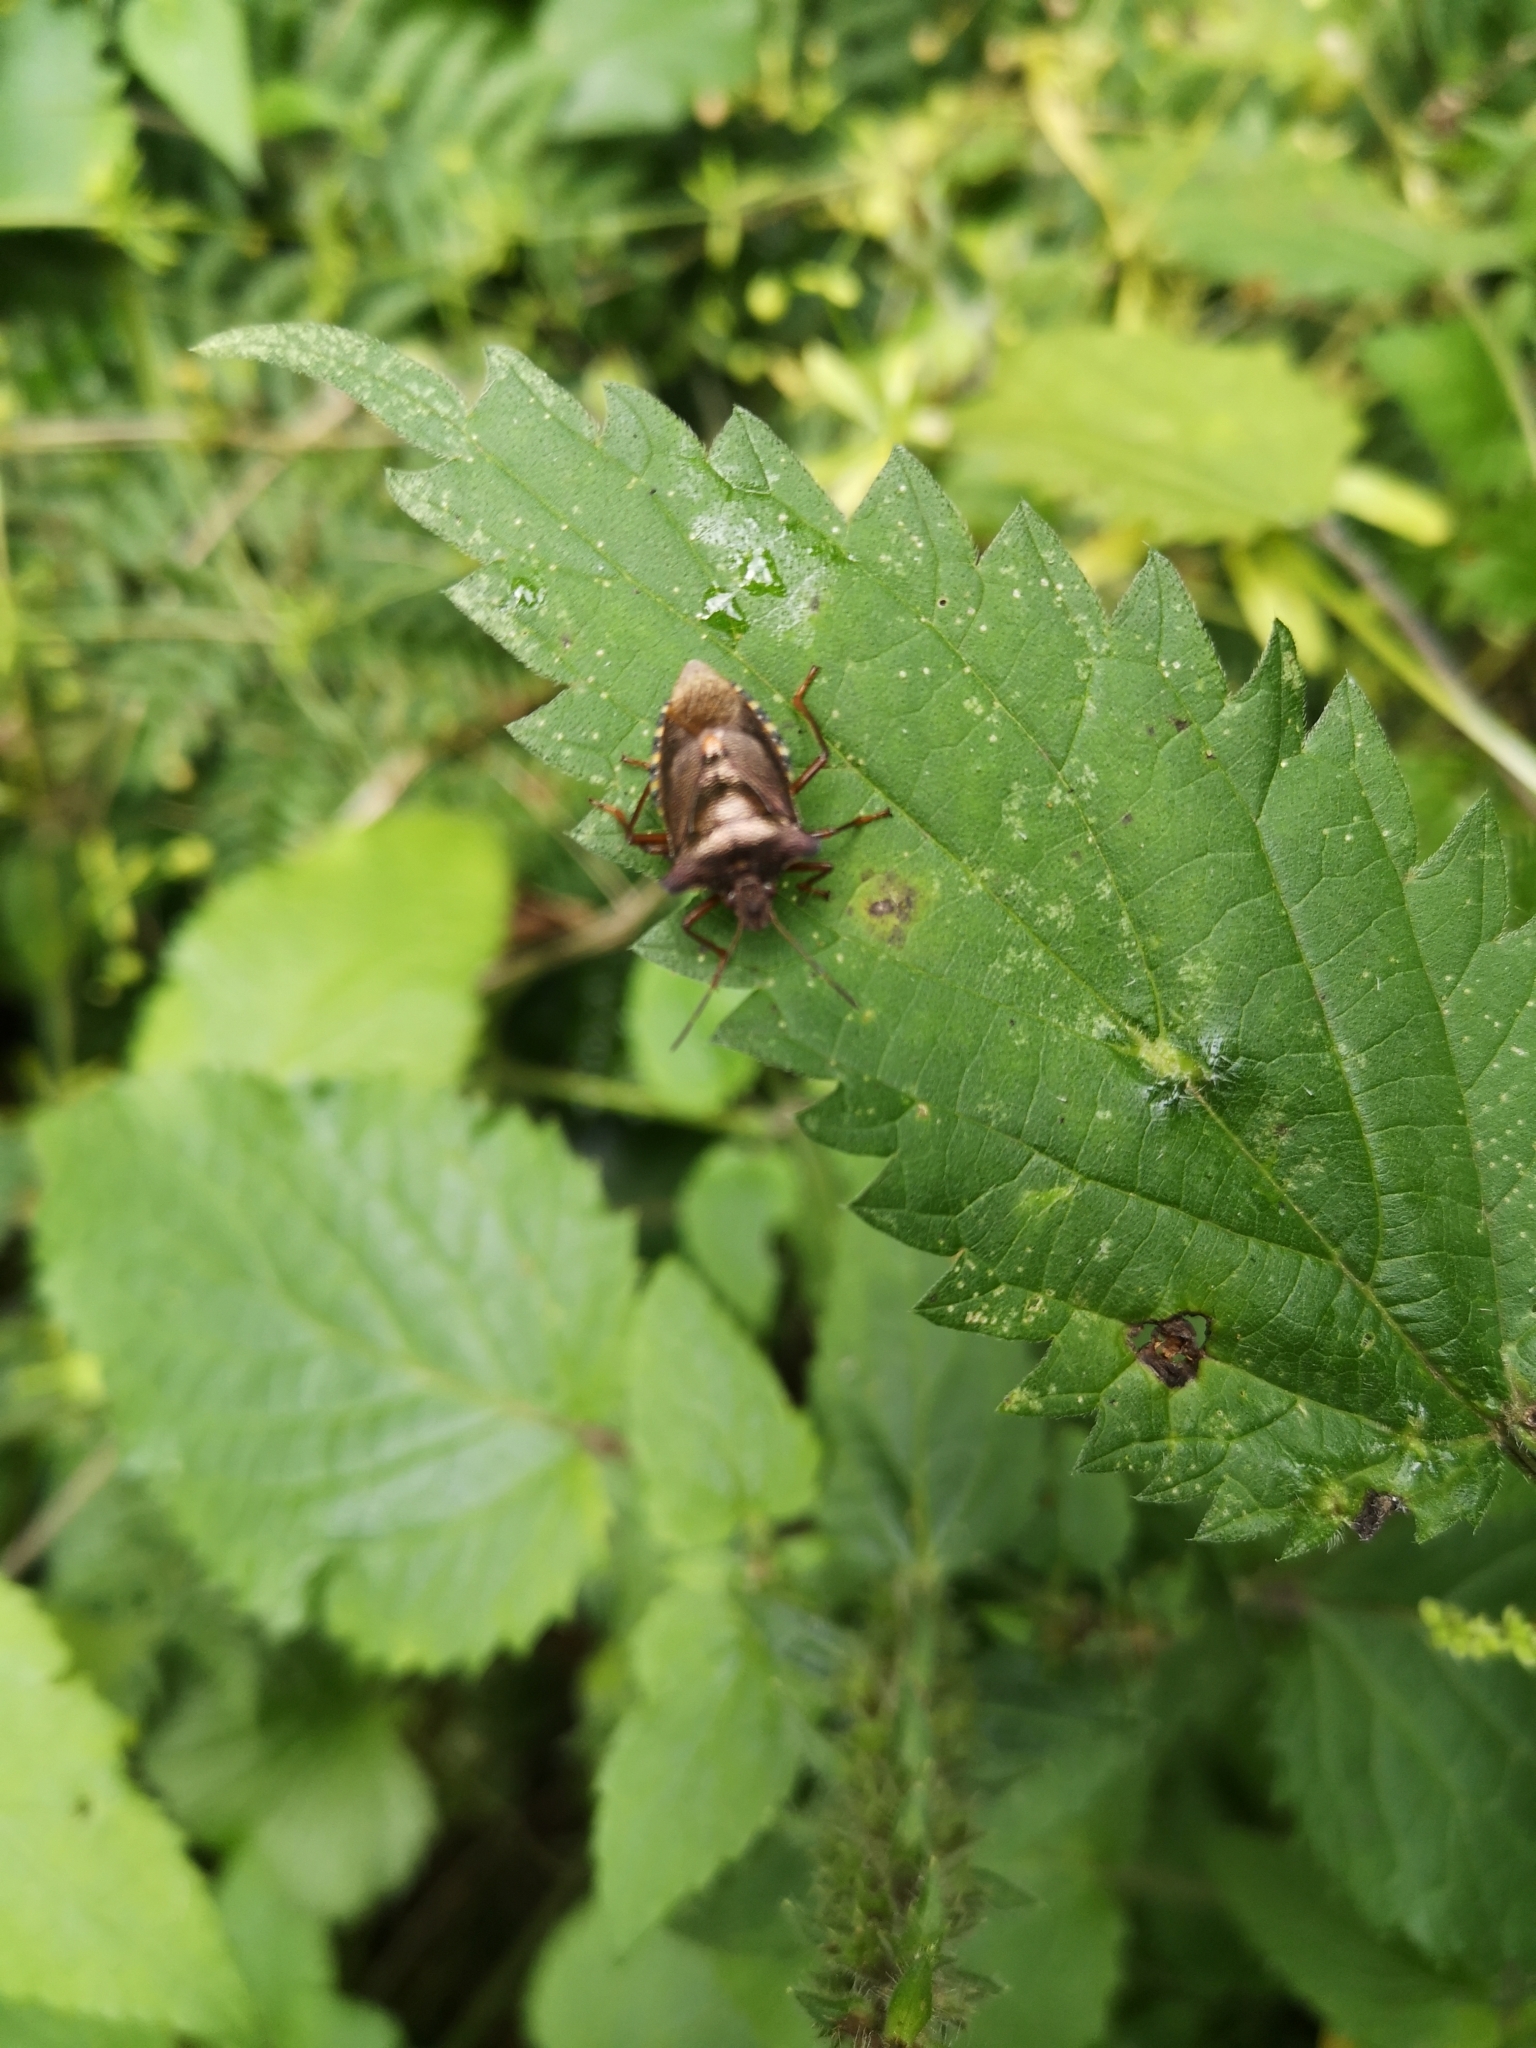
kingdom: Animalia
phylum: Arthropoda
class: Insecta
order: Hemiptera
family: Pentatomidae
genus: Pentatoma
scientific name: Pentatoma rufipes
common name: Forest bug
